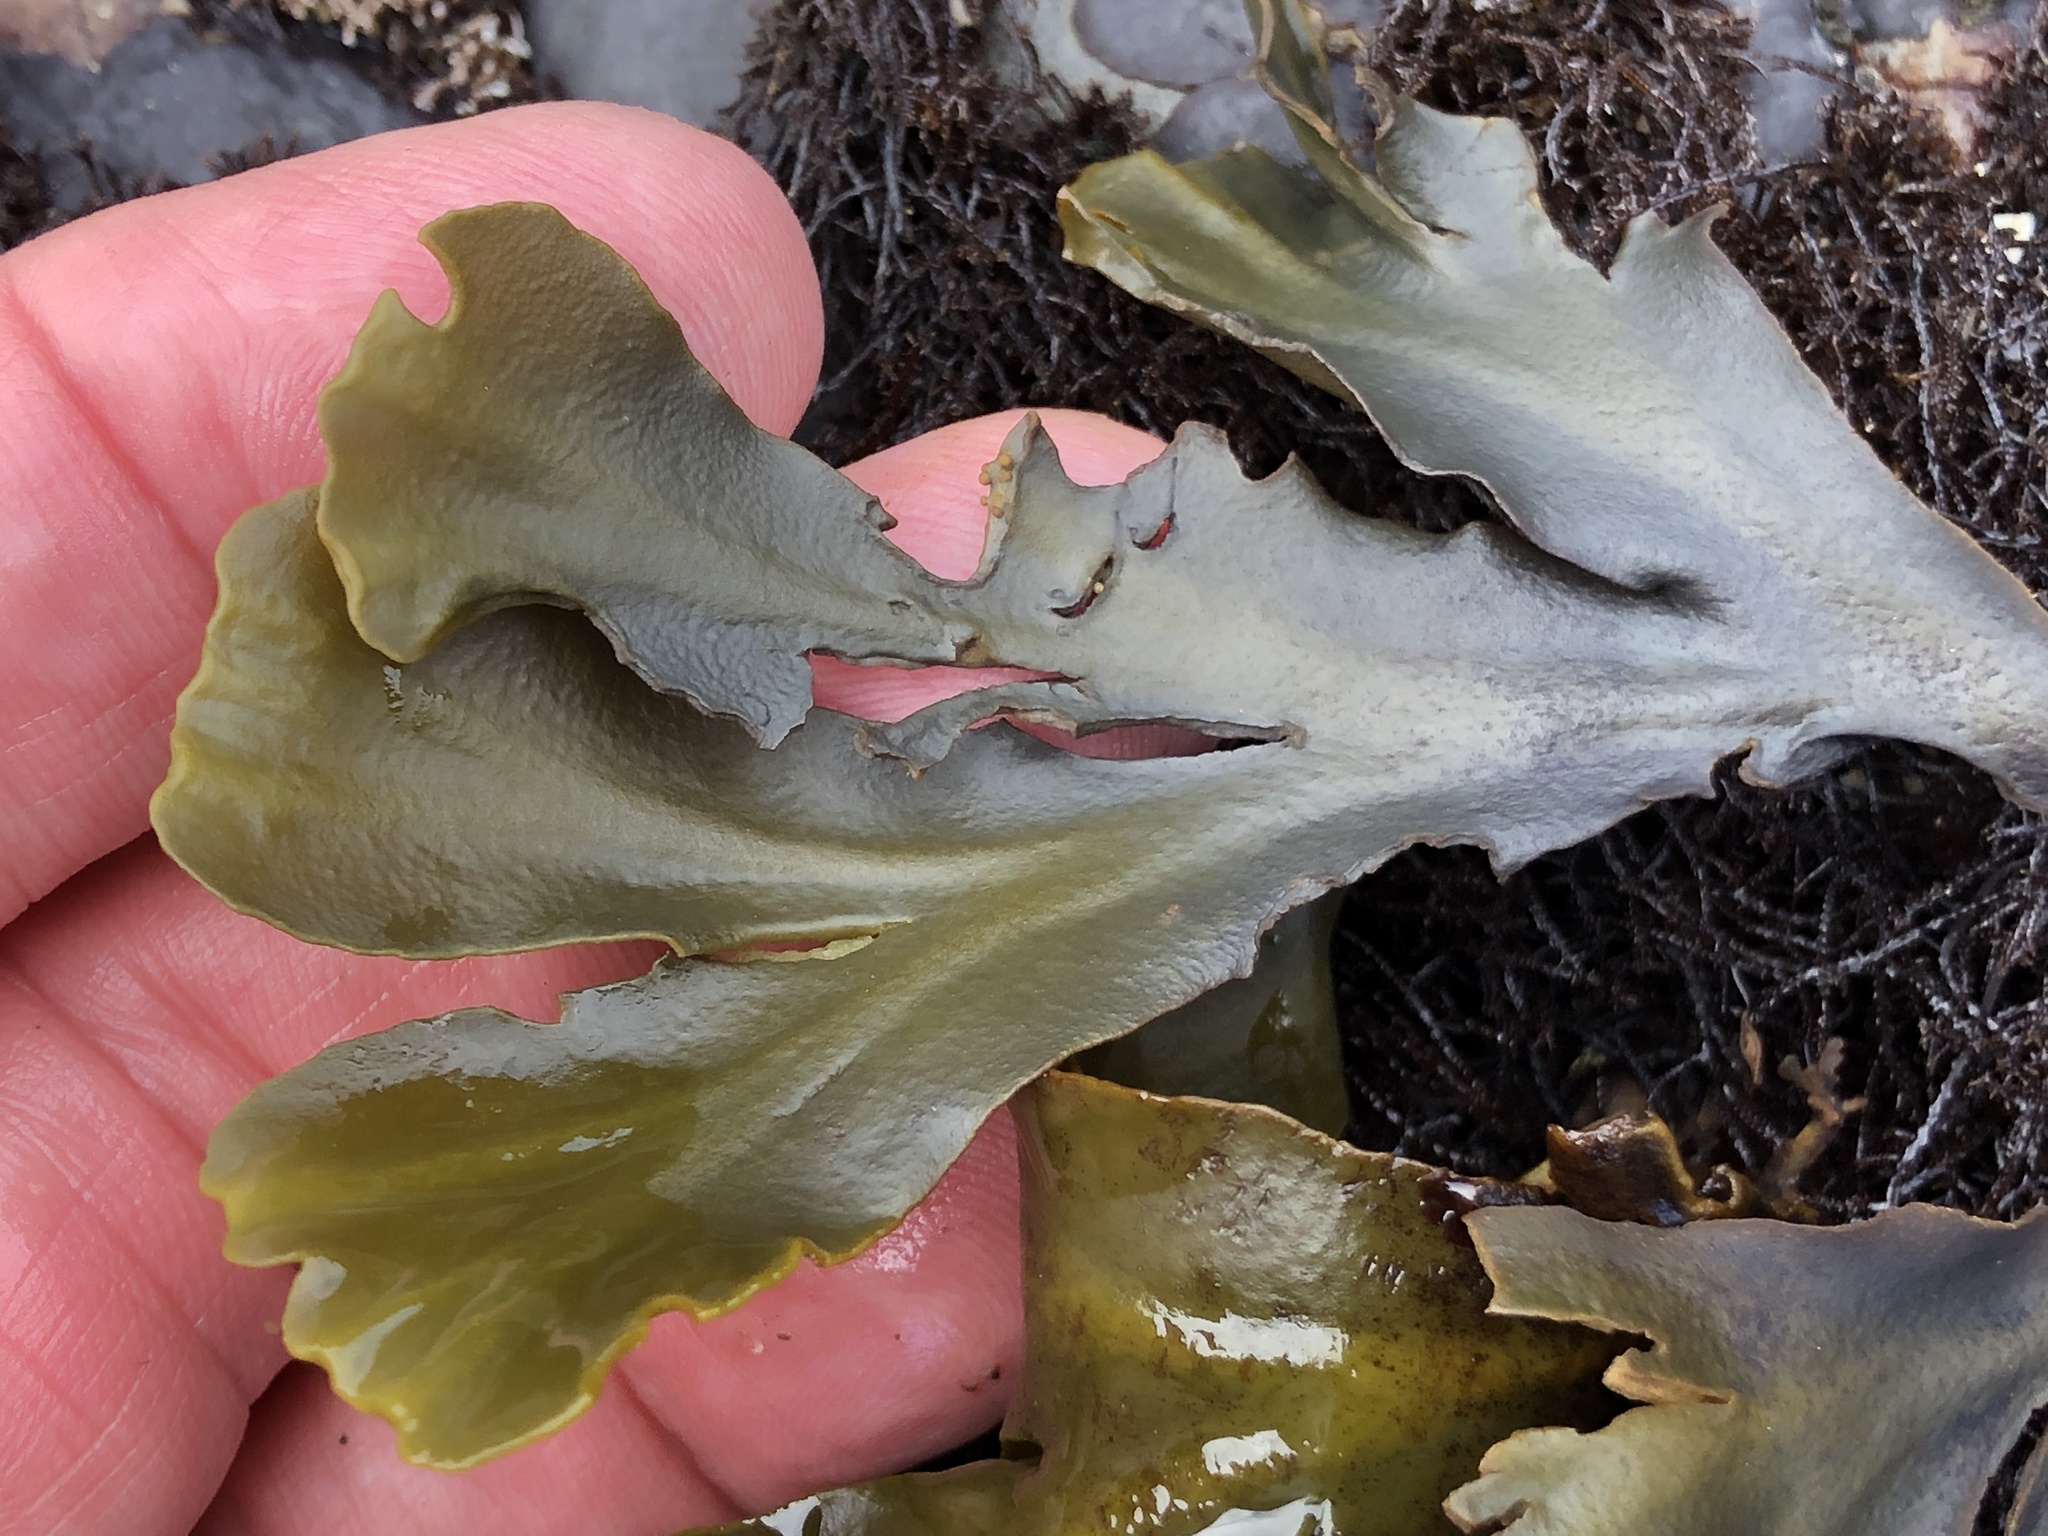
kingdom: Chromista
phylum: Ochrophyta
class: Phaeophyceae
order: Fucales
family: Fucaceae
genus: Fucus
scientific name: Fucus distichus
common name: Rockweed
